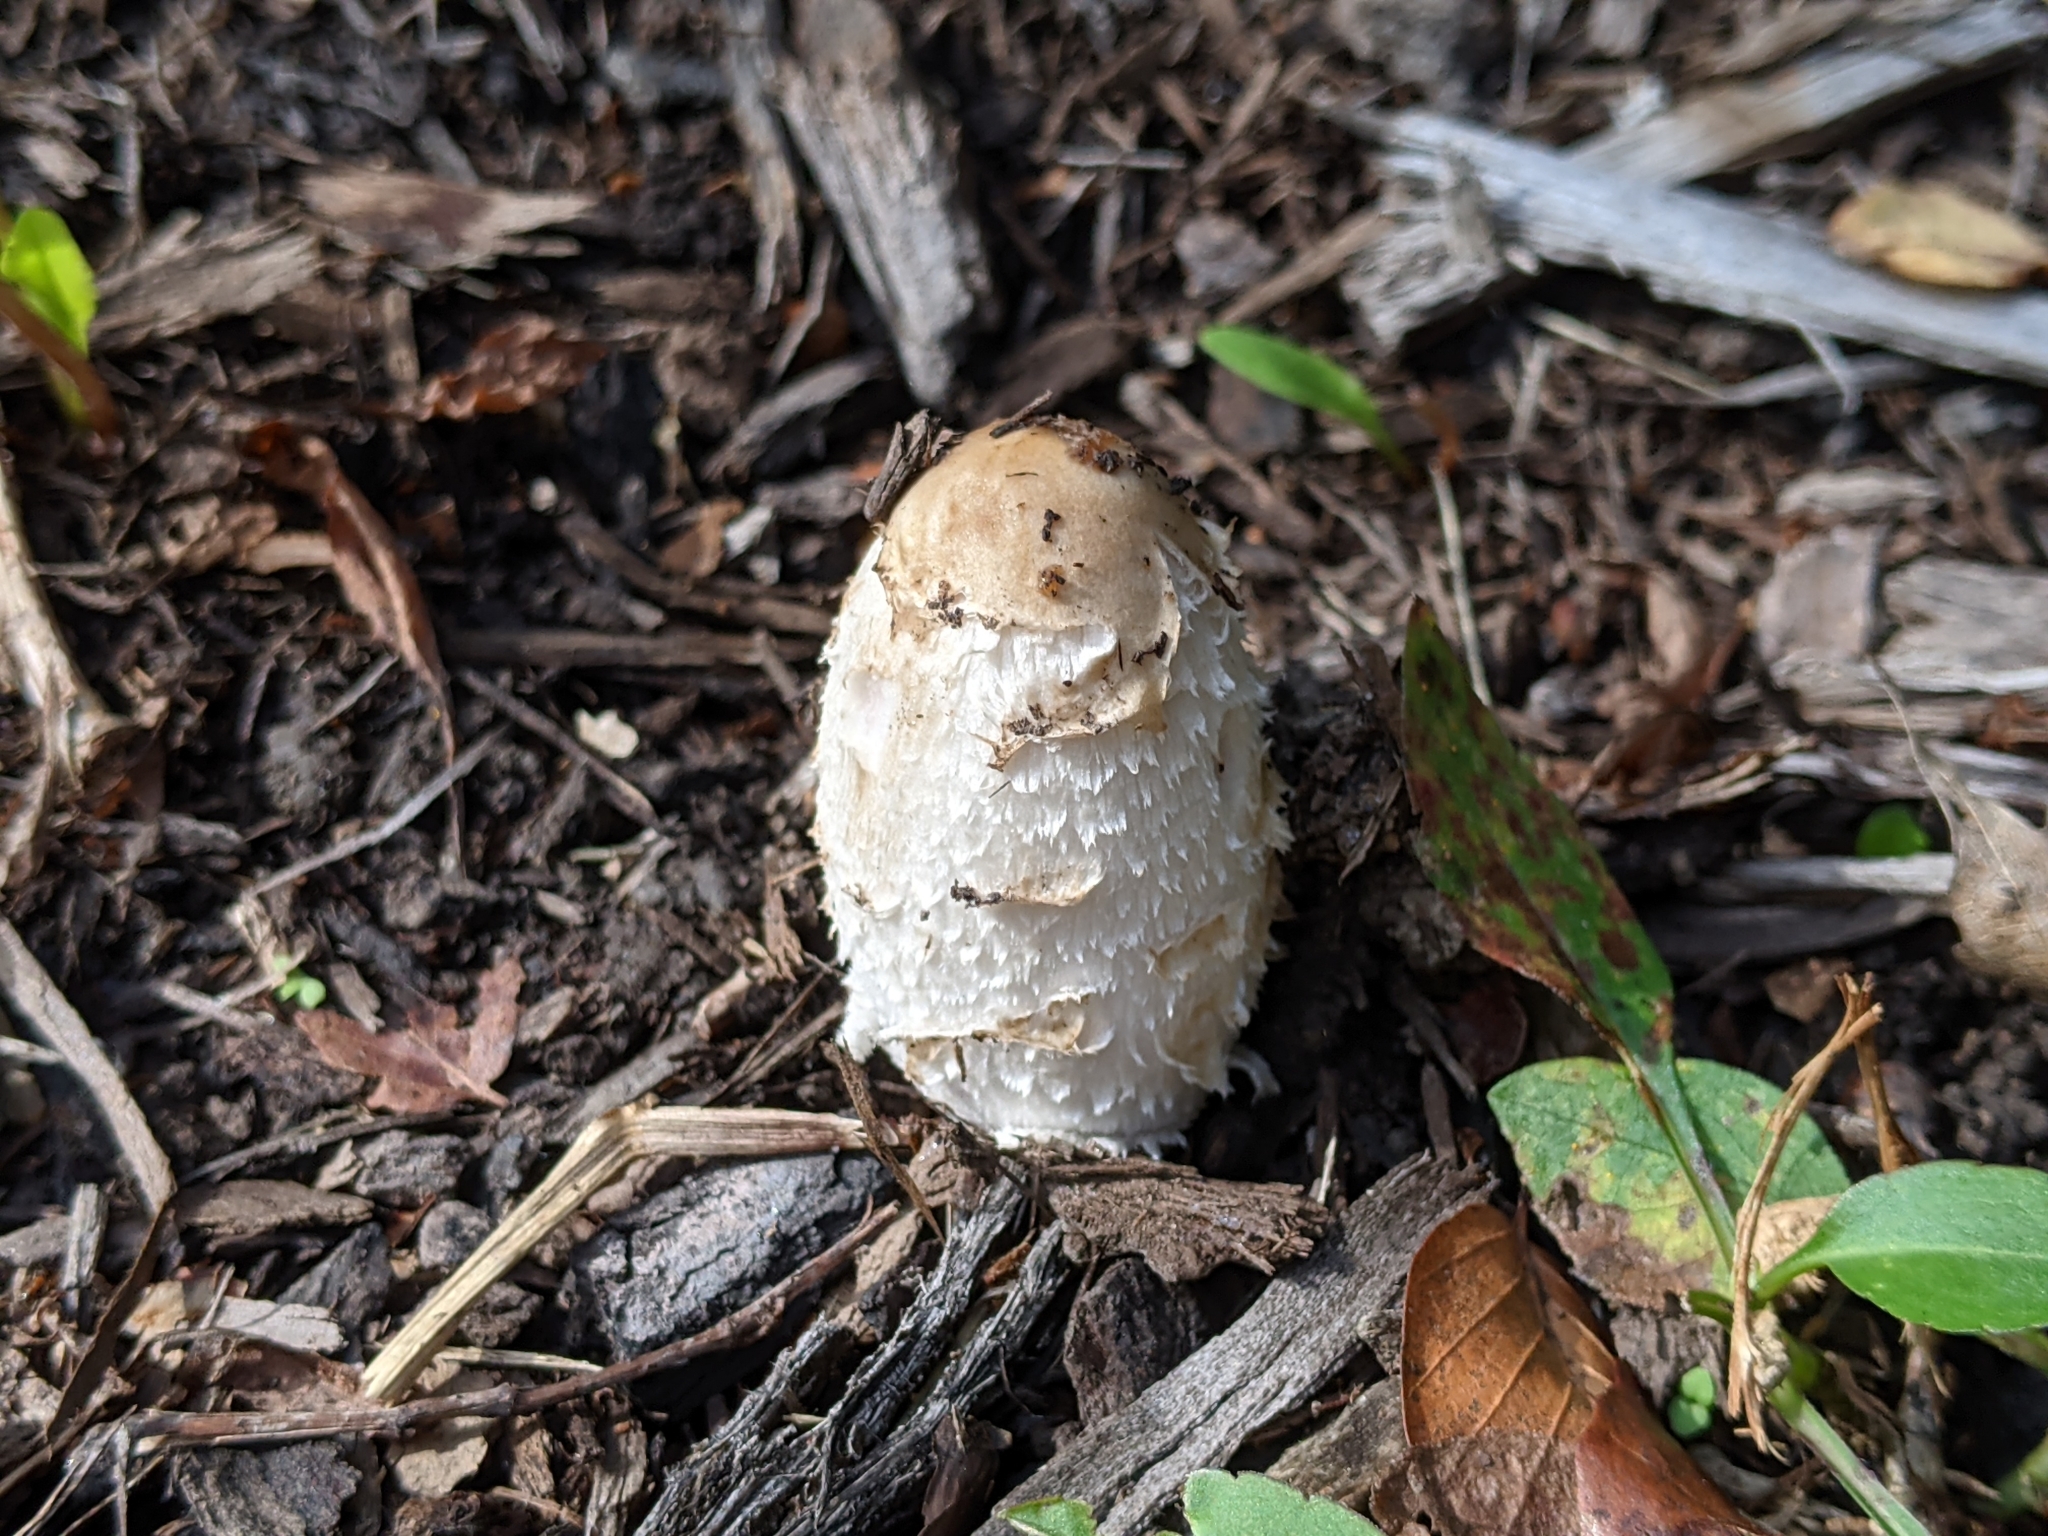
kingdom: Fungi
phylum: Basidiomycota
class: Agaricomycetes
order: Agaricales
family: Agaricaceae
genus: Coprinus
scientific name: Coprinus comatus
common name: Lawyer's wig
